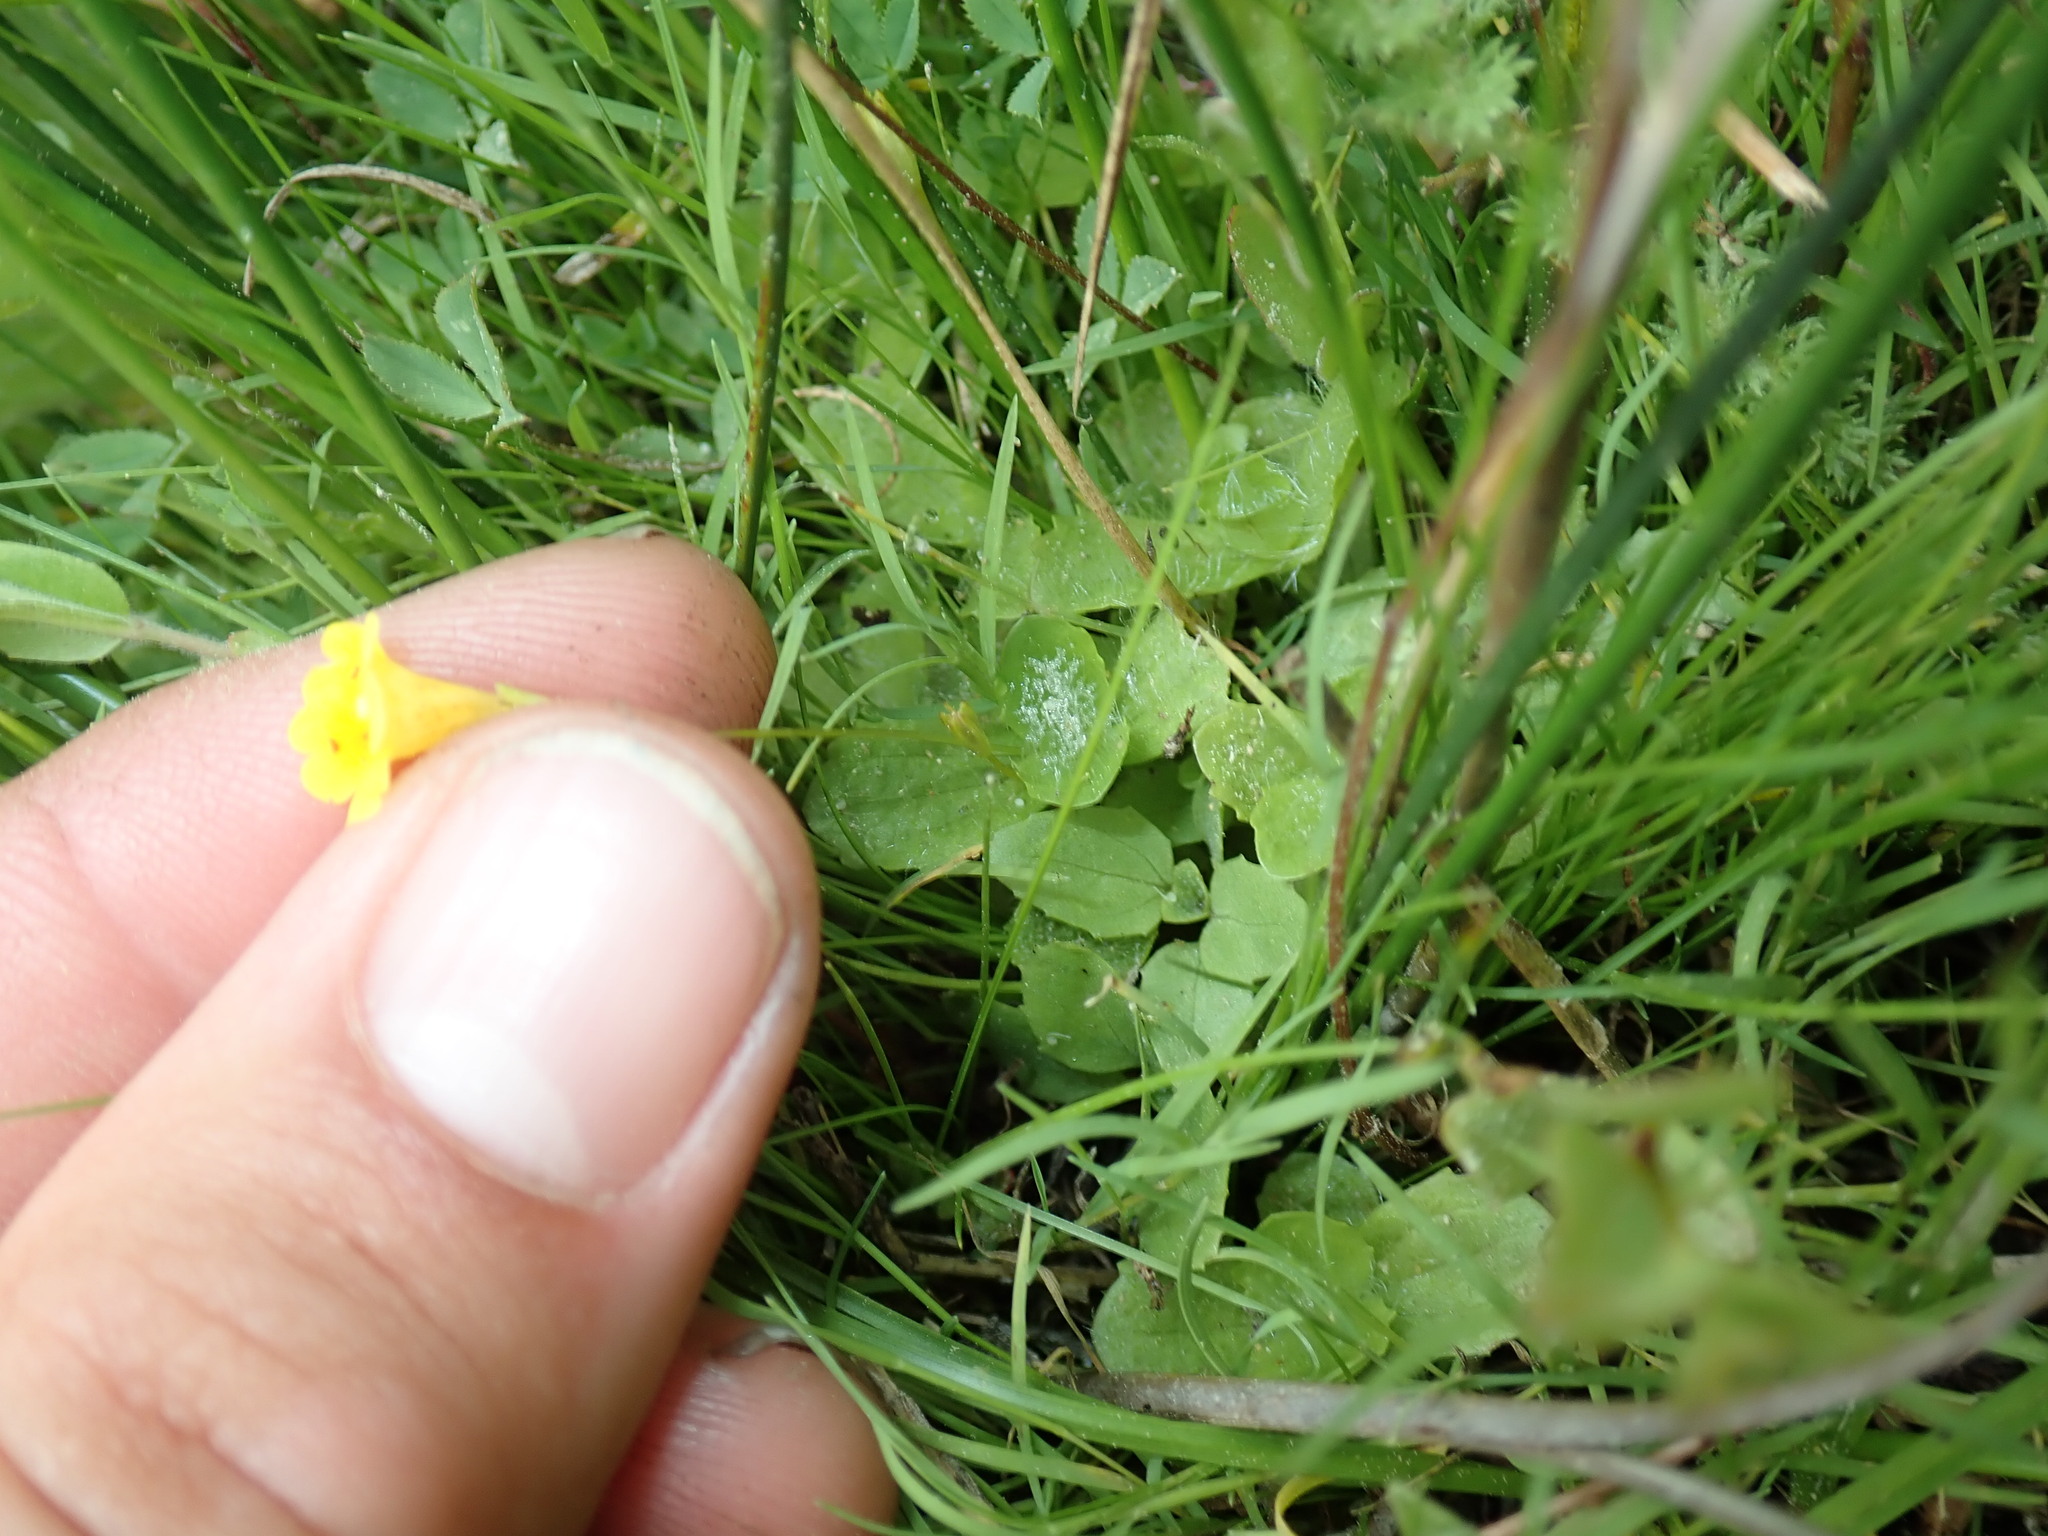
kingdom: Plantae
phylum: Tracheophyta
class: Magnoliopsida
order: Lamiales
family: Phrymaceae
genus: Erythranthe
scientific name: Erythranthe primuloides
